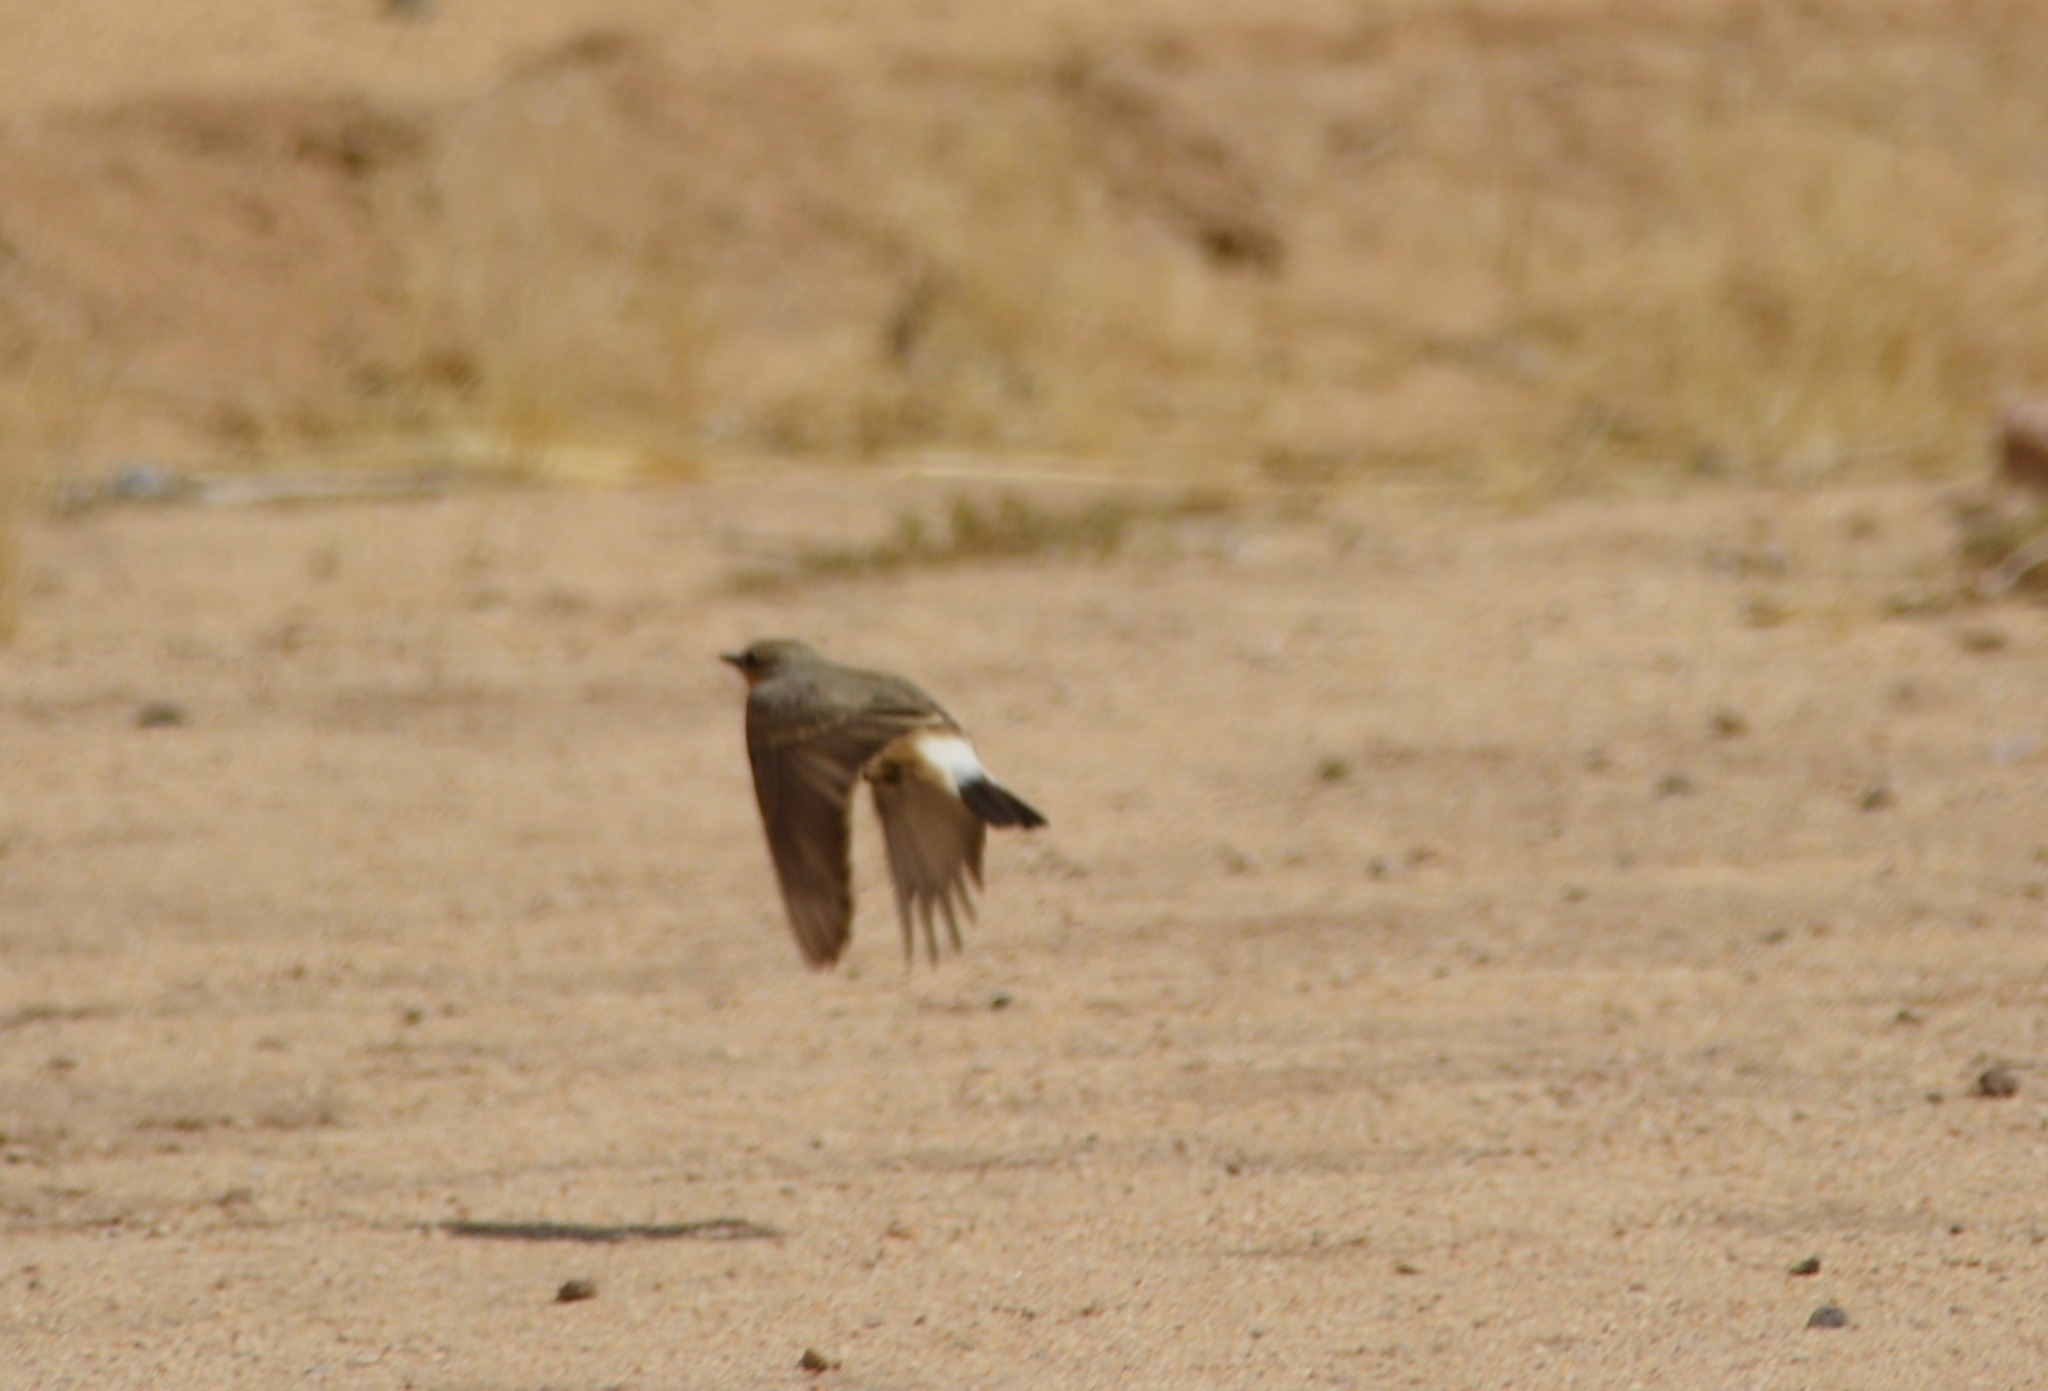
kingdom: Animalia
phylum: Chordata
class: Aves
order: Passeriformes
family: Muscicapidae
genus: Oenanthe
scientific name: Oenanthe isabellina
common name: Isabelline wheatear
